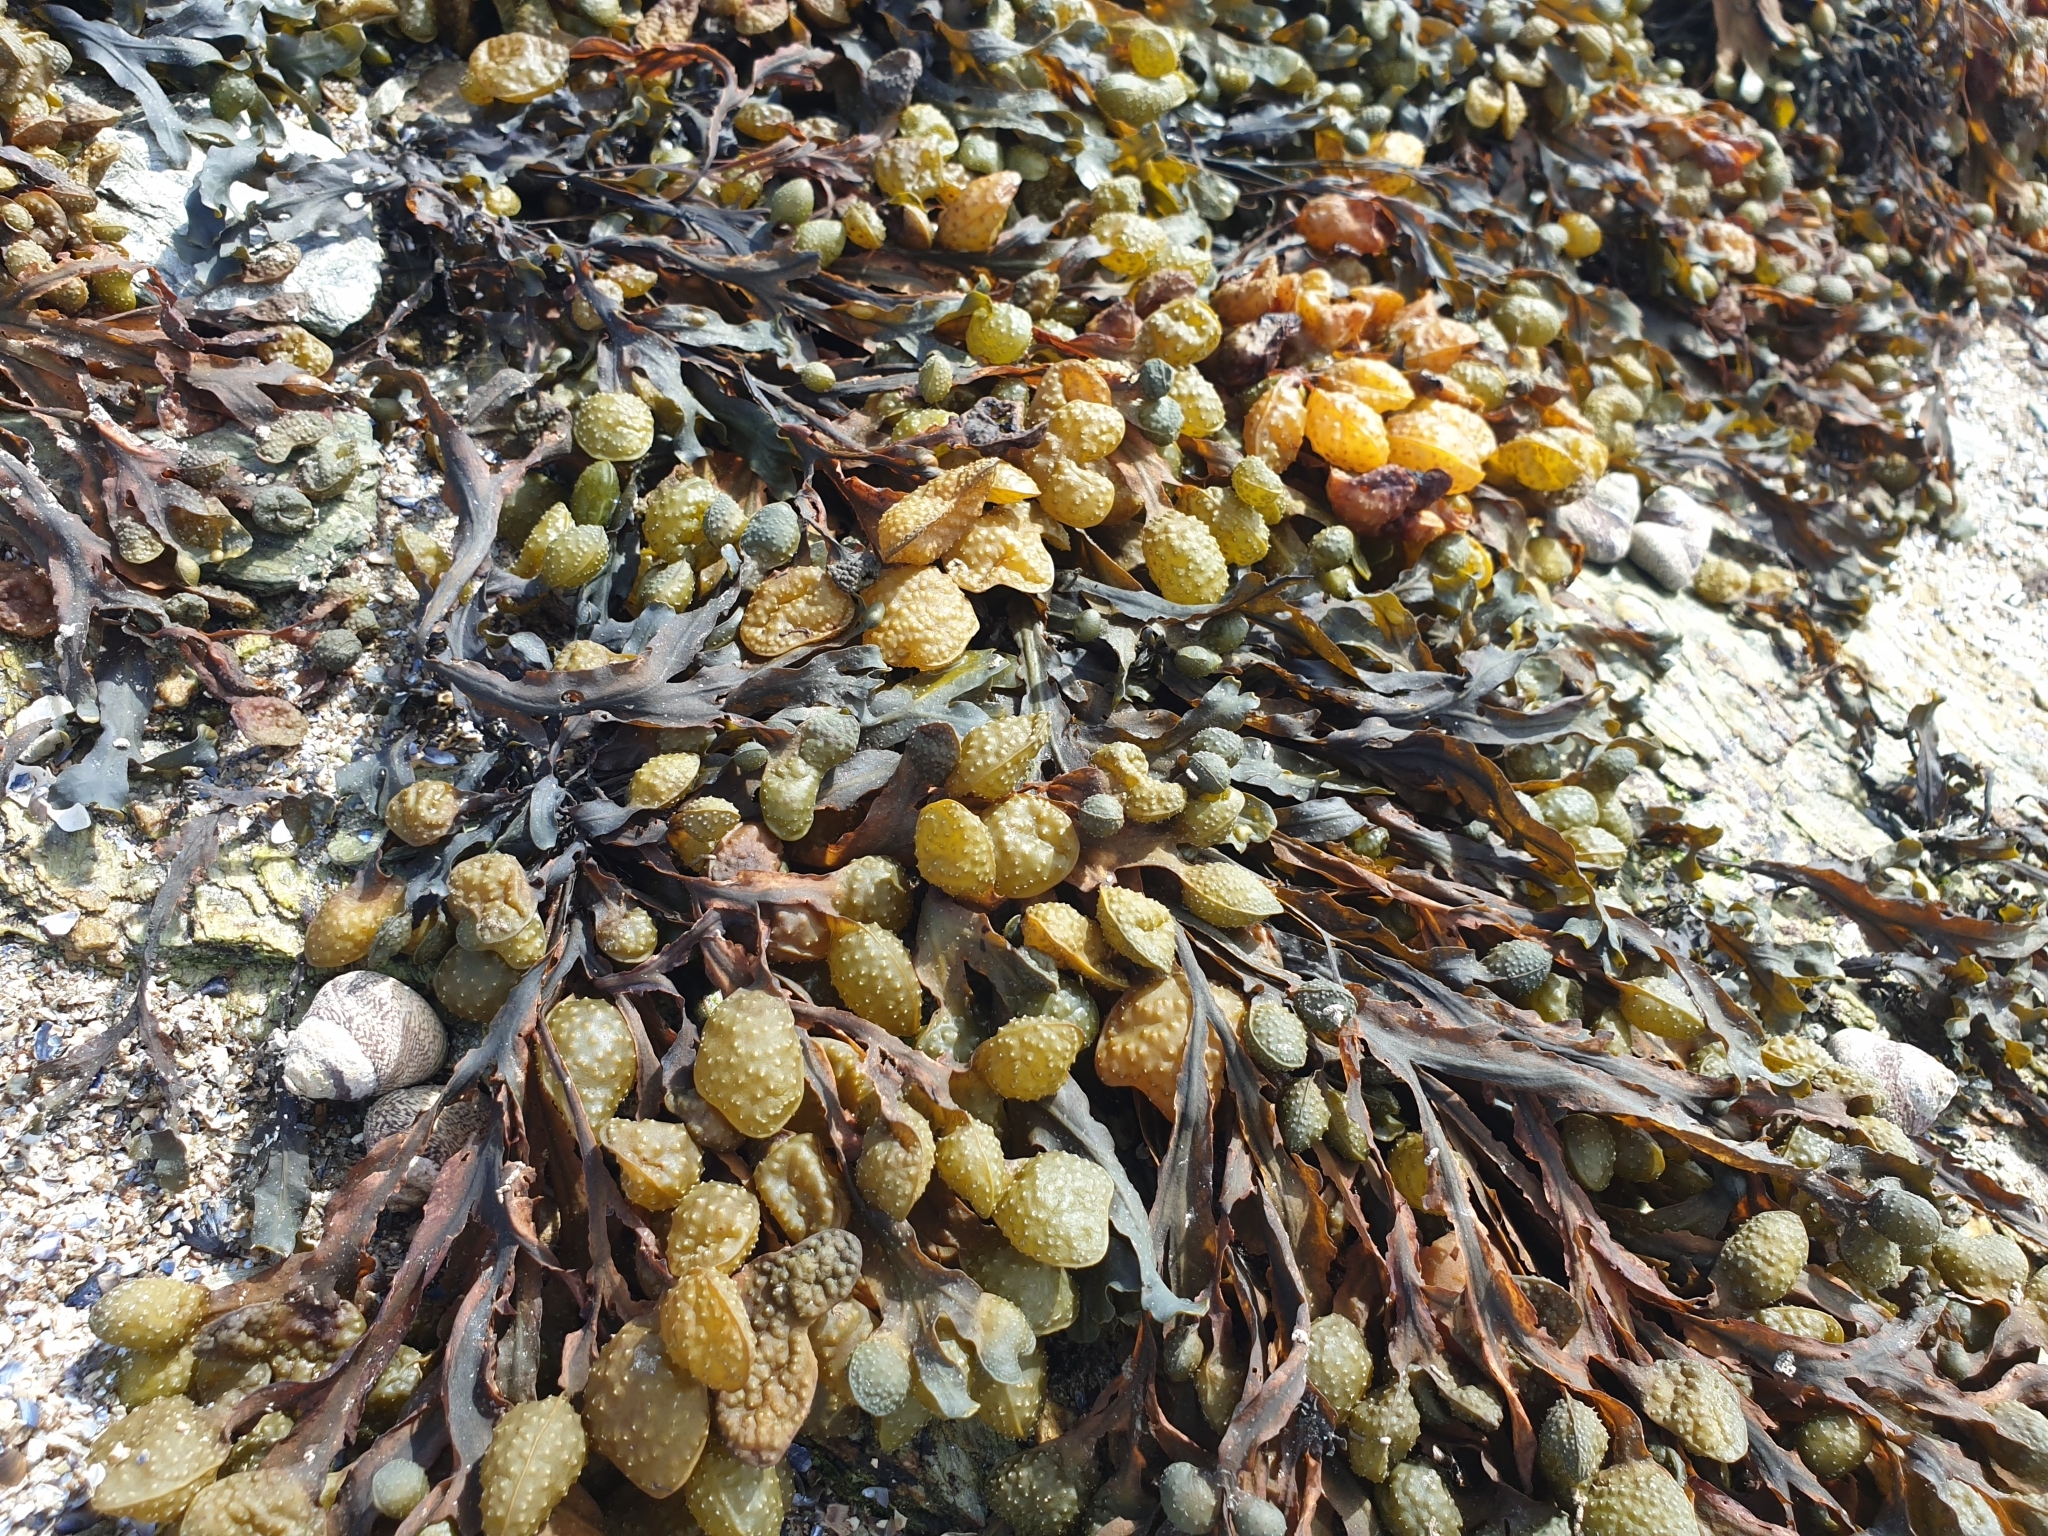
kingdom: Chromista
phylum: Ochrophyta
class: Phaeophyceae
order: Fucales
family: Fucaceae
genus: Fucus
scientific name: Fucus
